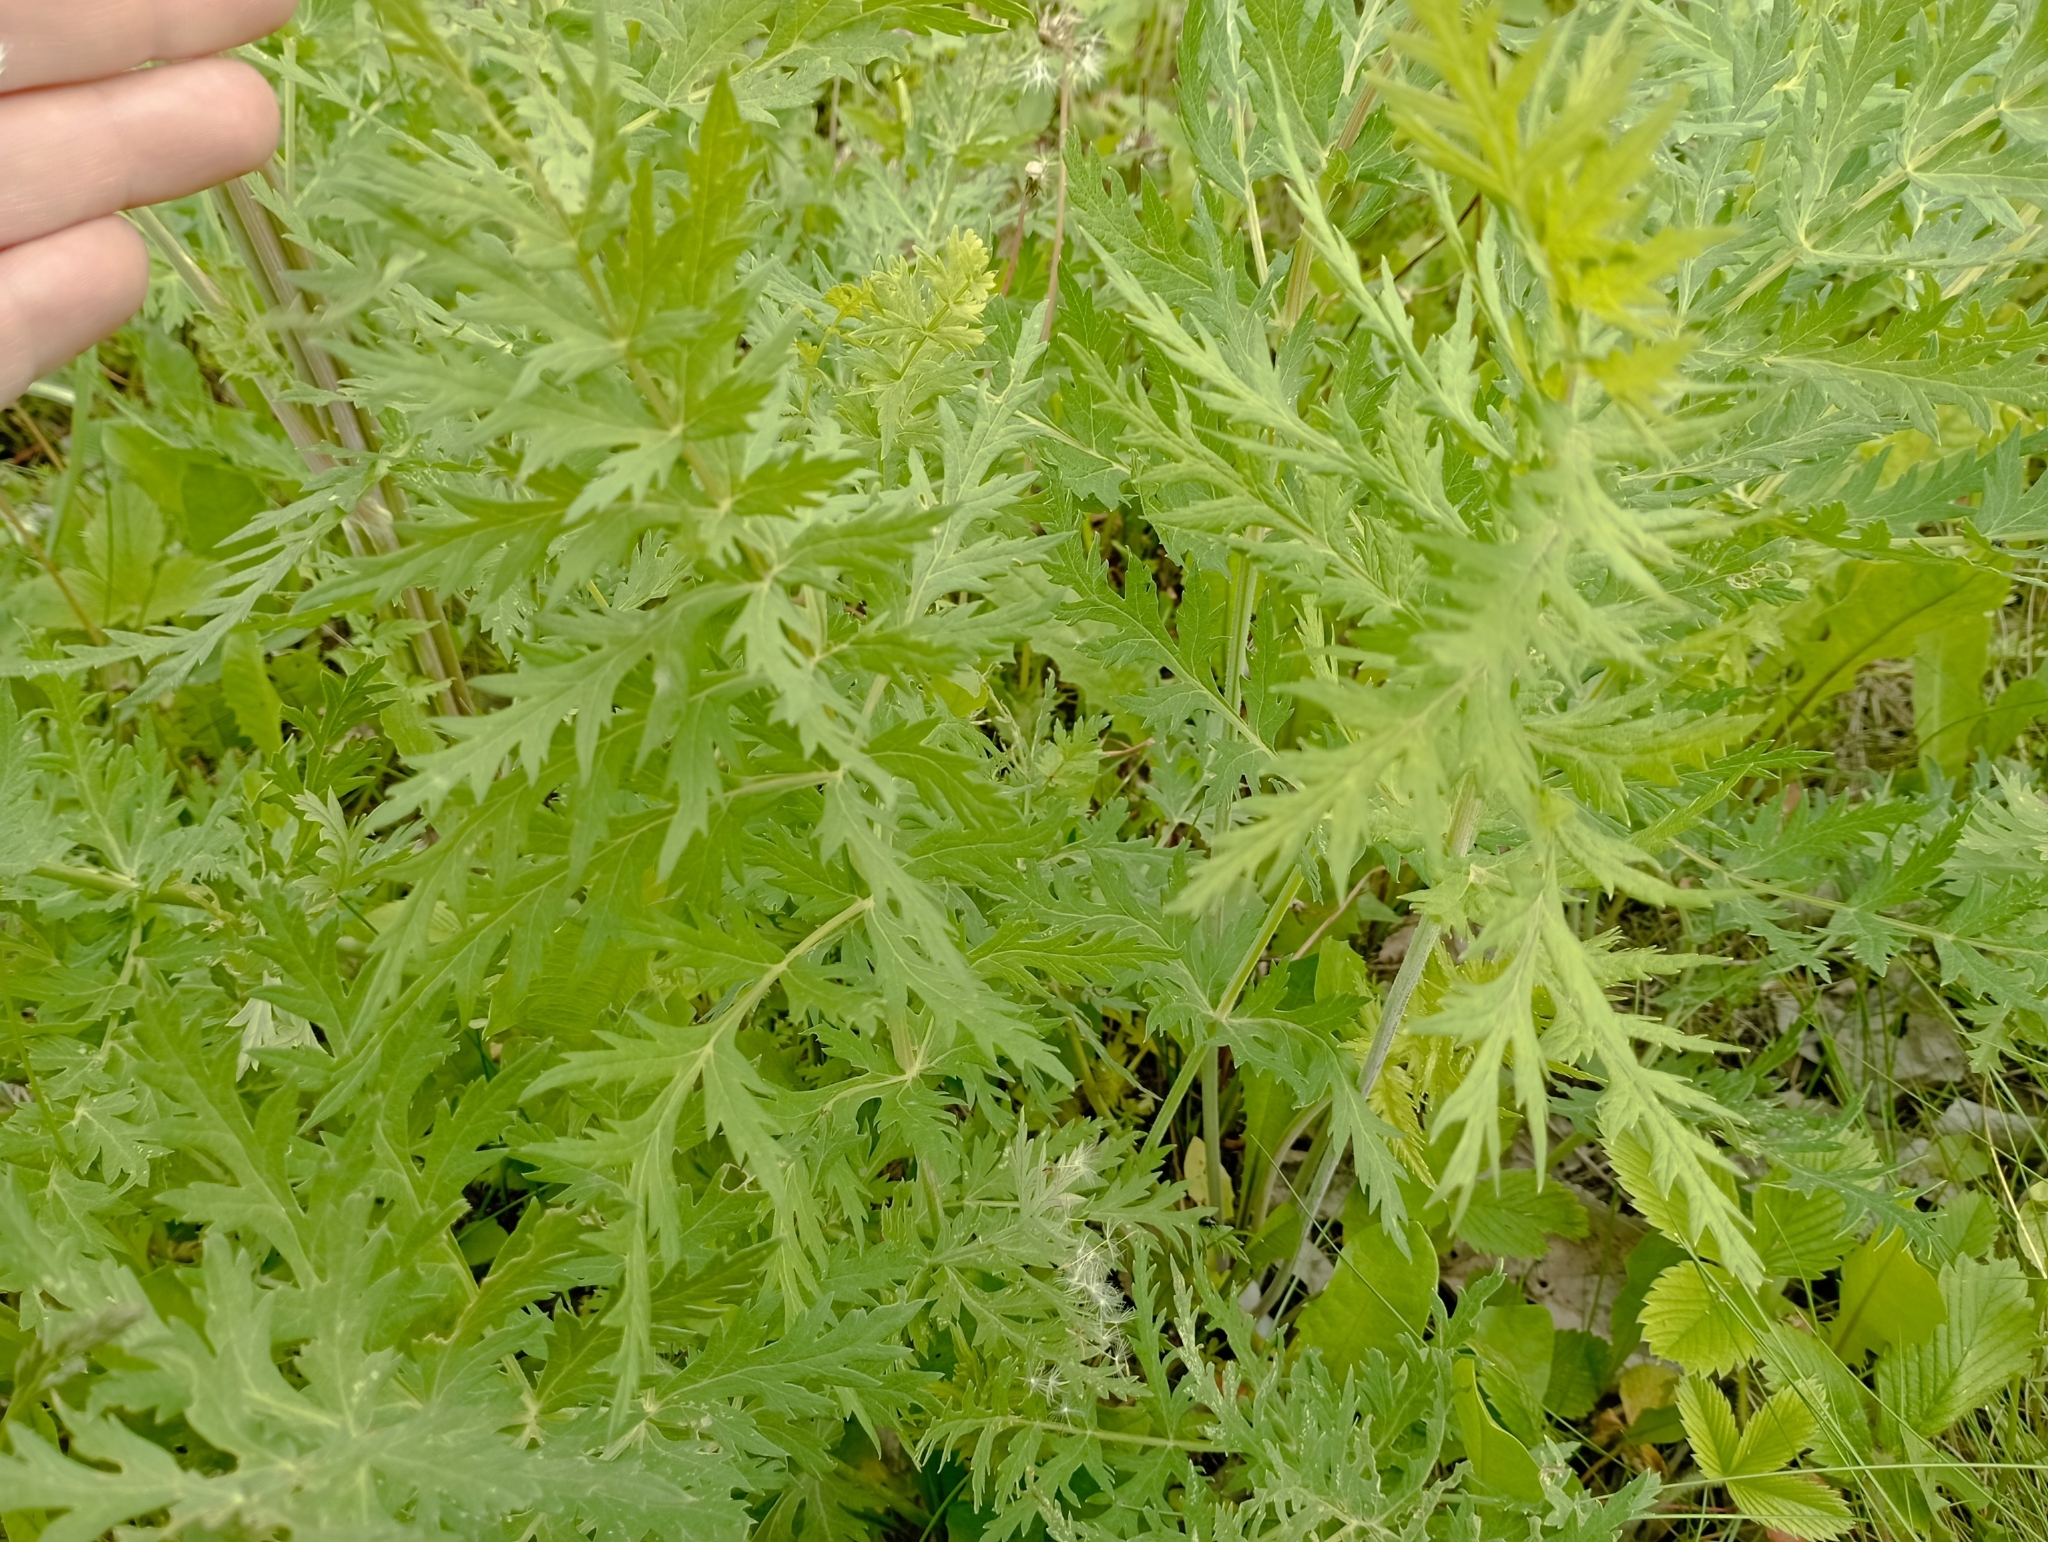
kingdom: Plantae
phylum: Tracheophyta
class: Magnoliopsida
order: Apiales
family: Apiaceae
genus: Seseli
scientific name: Seseli libanotis
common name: Mooncarrot
